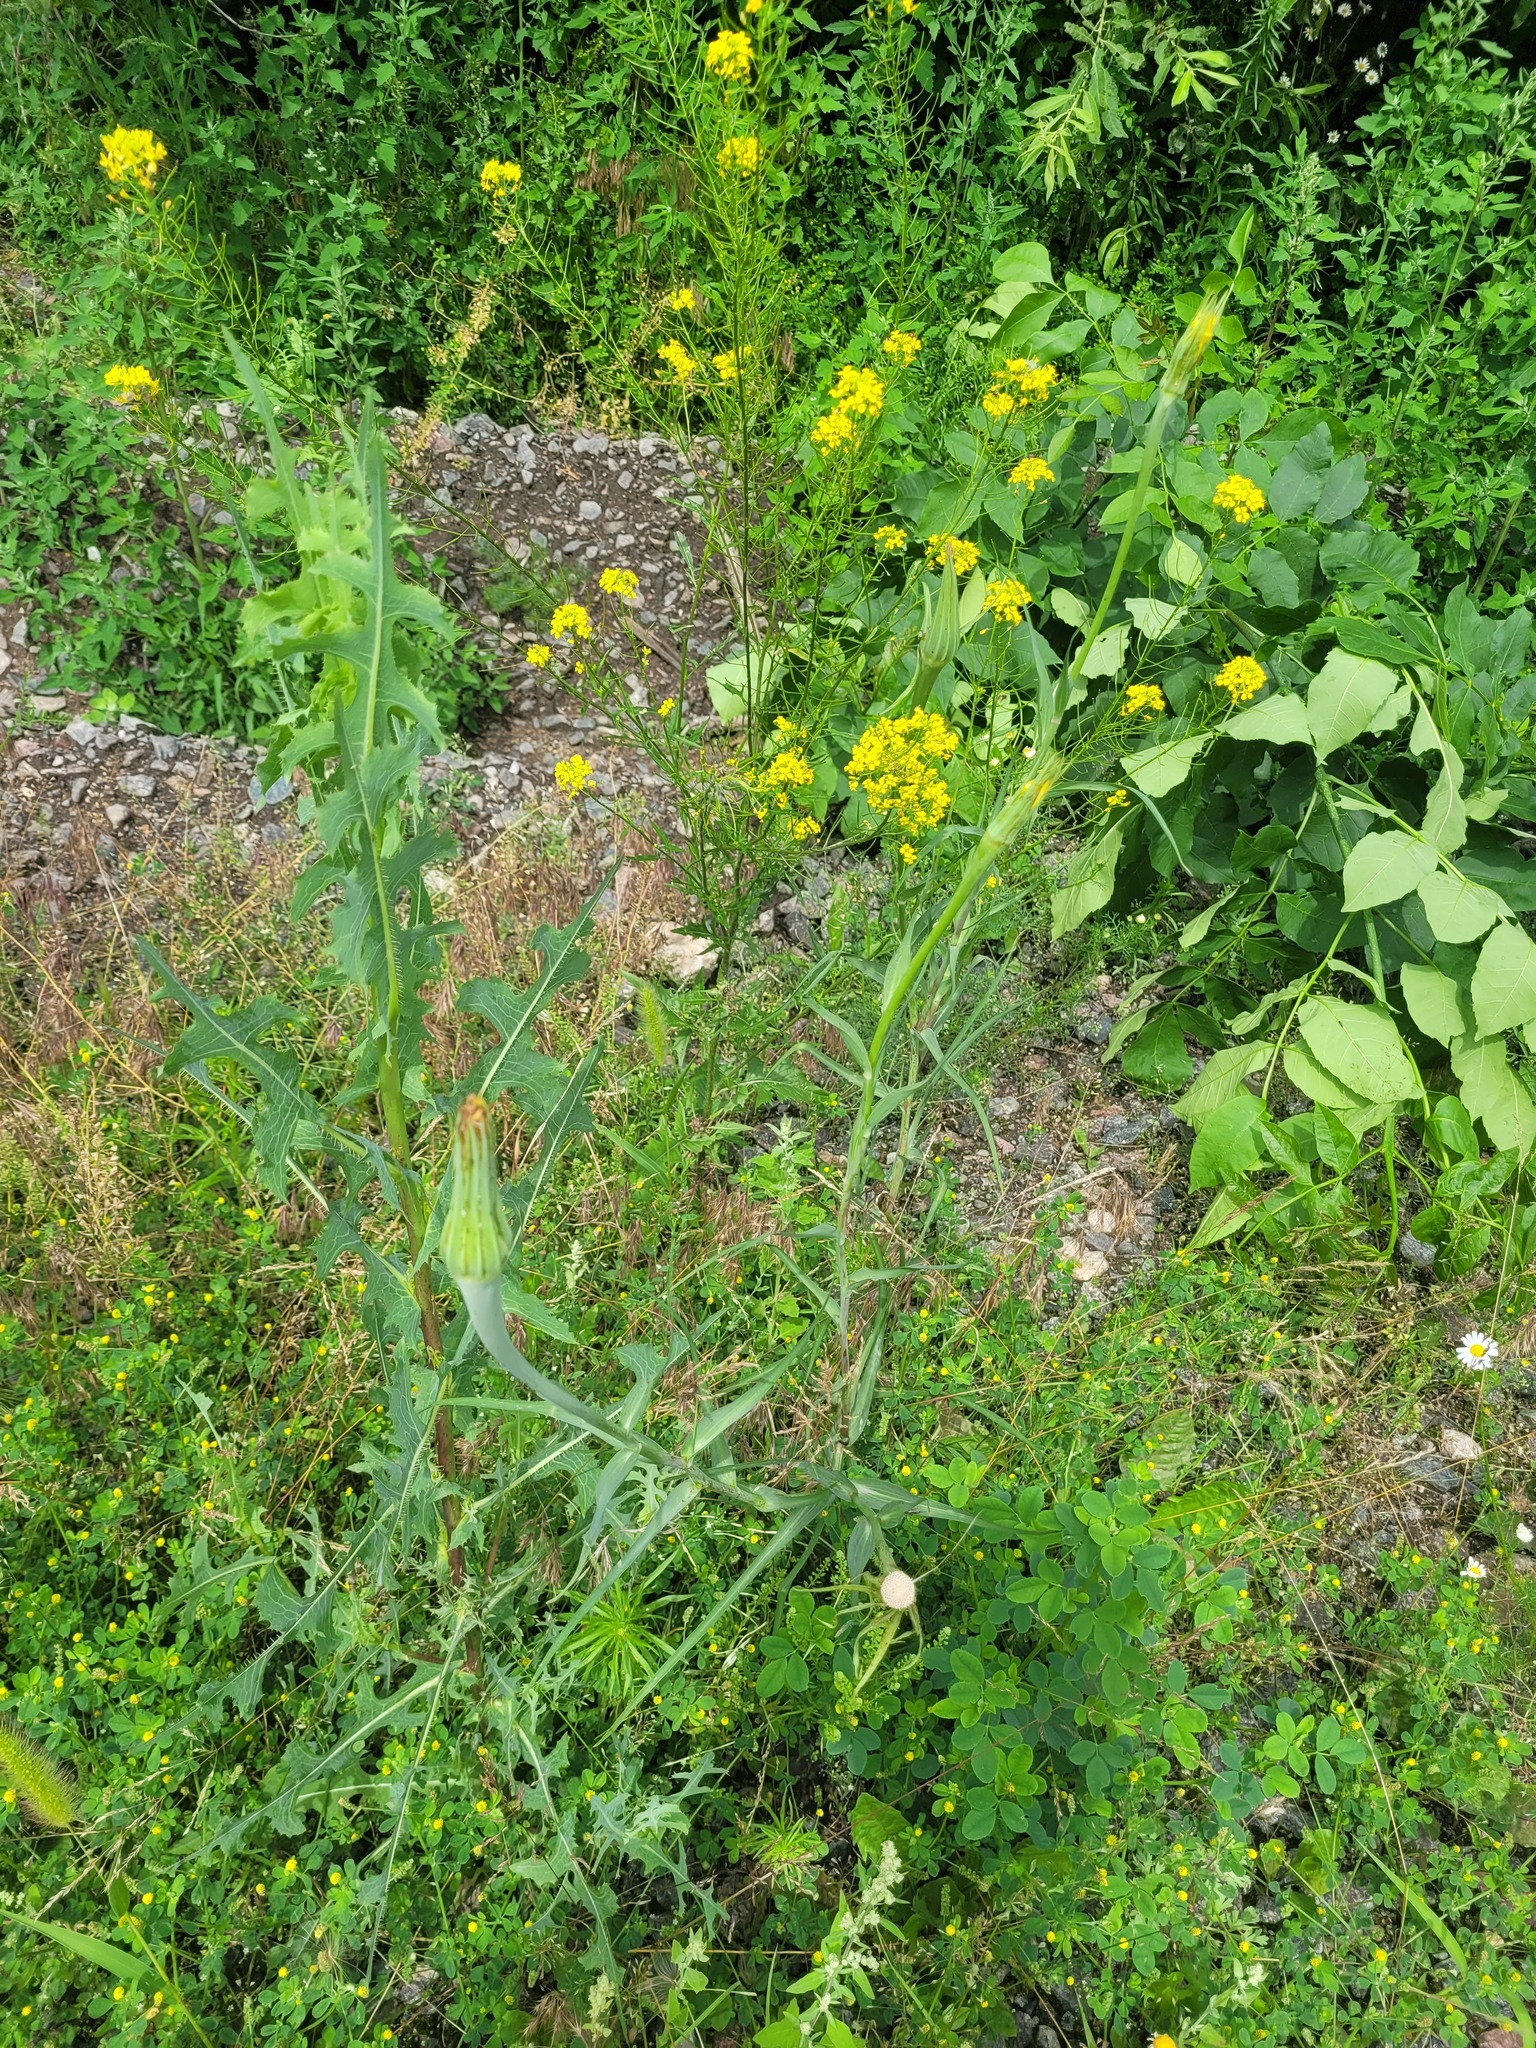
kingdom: Plantae
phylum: Tracheophyta
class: Magnoliopsida
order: Asterales
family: Asteraceae
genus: Tragopogon
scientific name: Tragopogon dubius
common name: Yellow salsify
